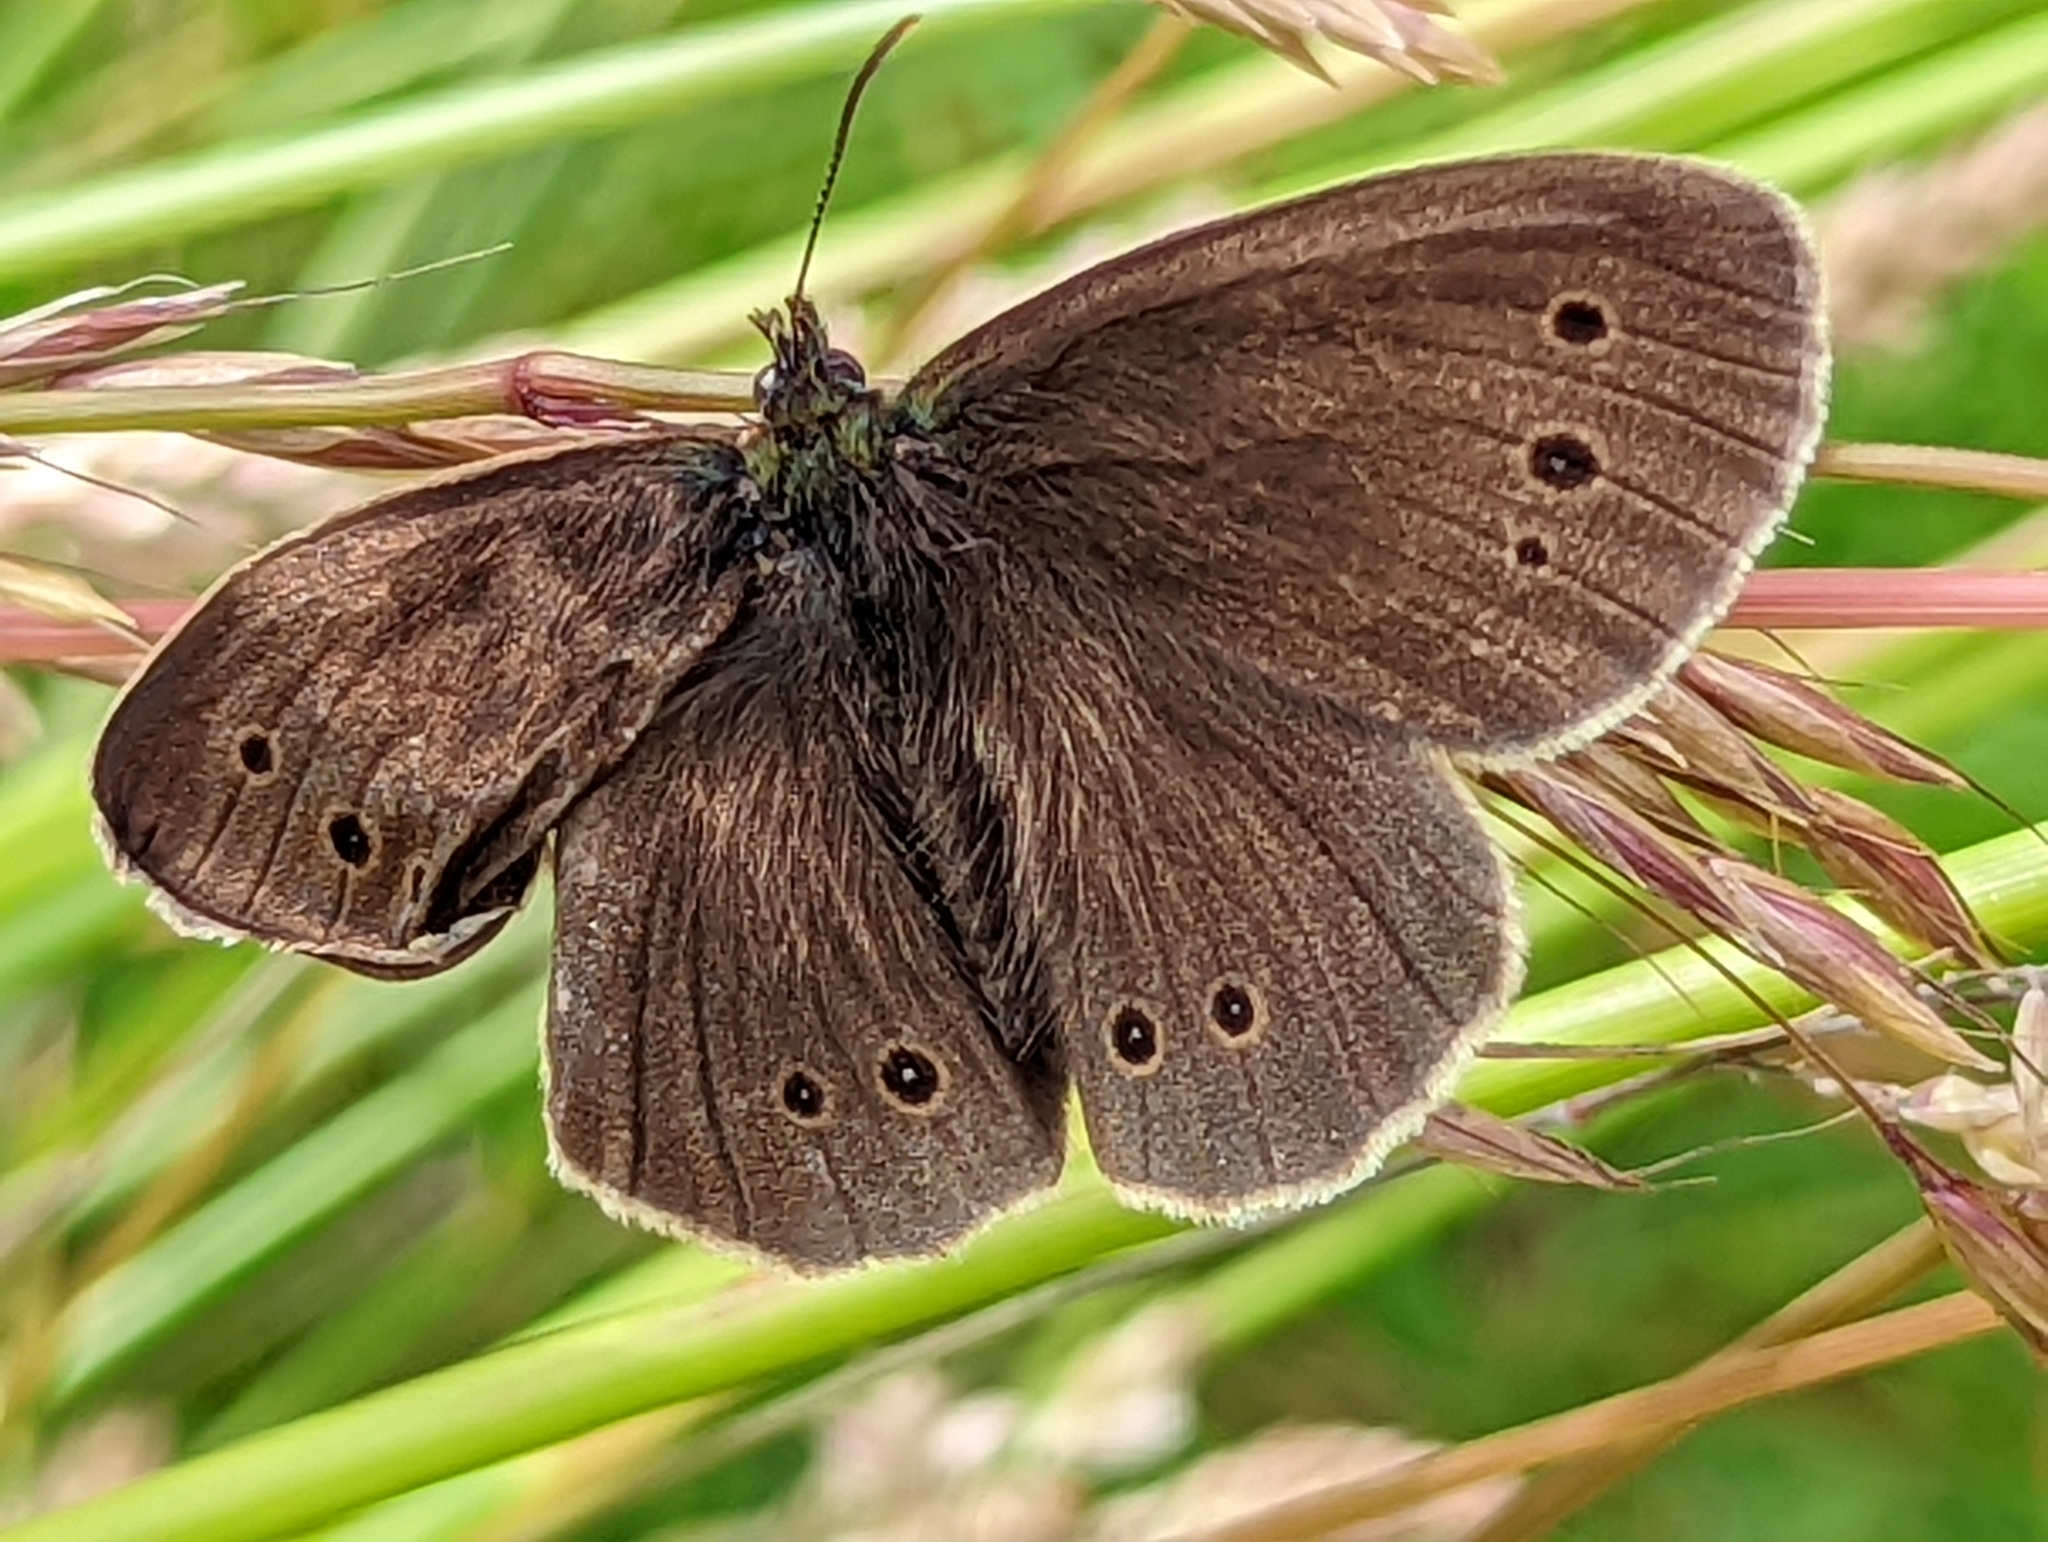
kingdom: Animalia
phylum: Arthropoda
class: Insecta
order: Lepidoptera
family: Nymphalidae
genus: Aphantopus
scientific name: Aphantopus hyperantus
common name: Ringlet
